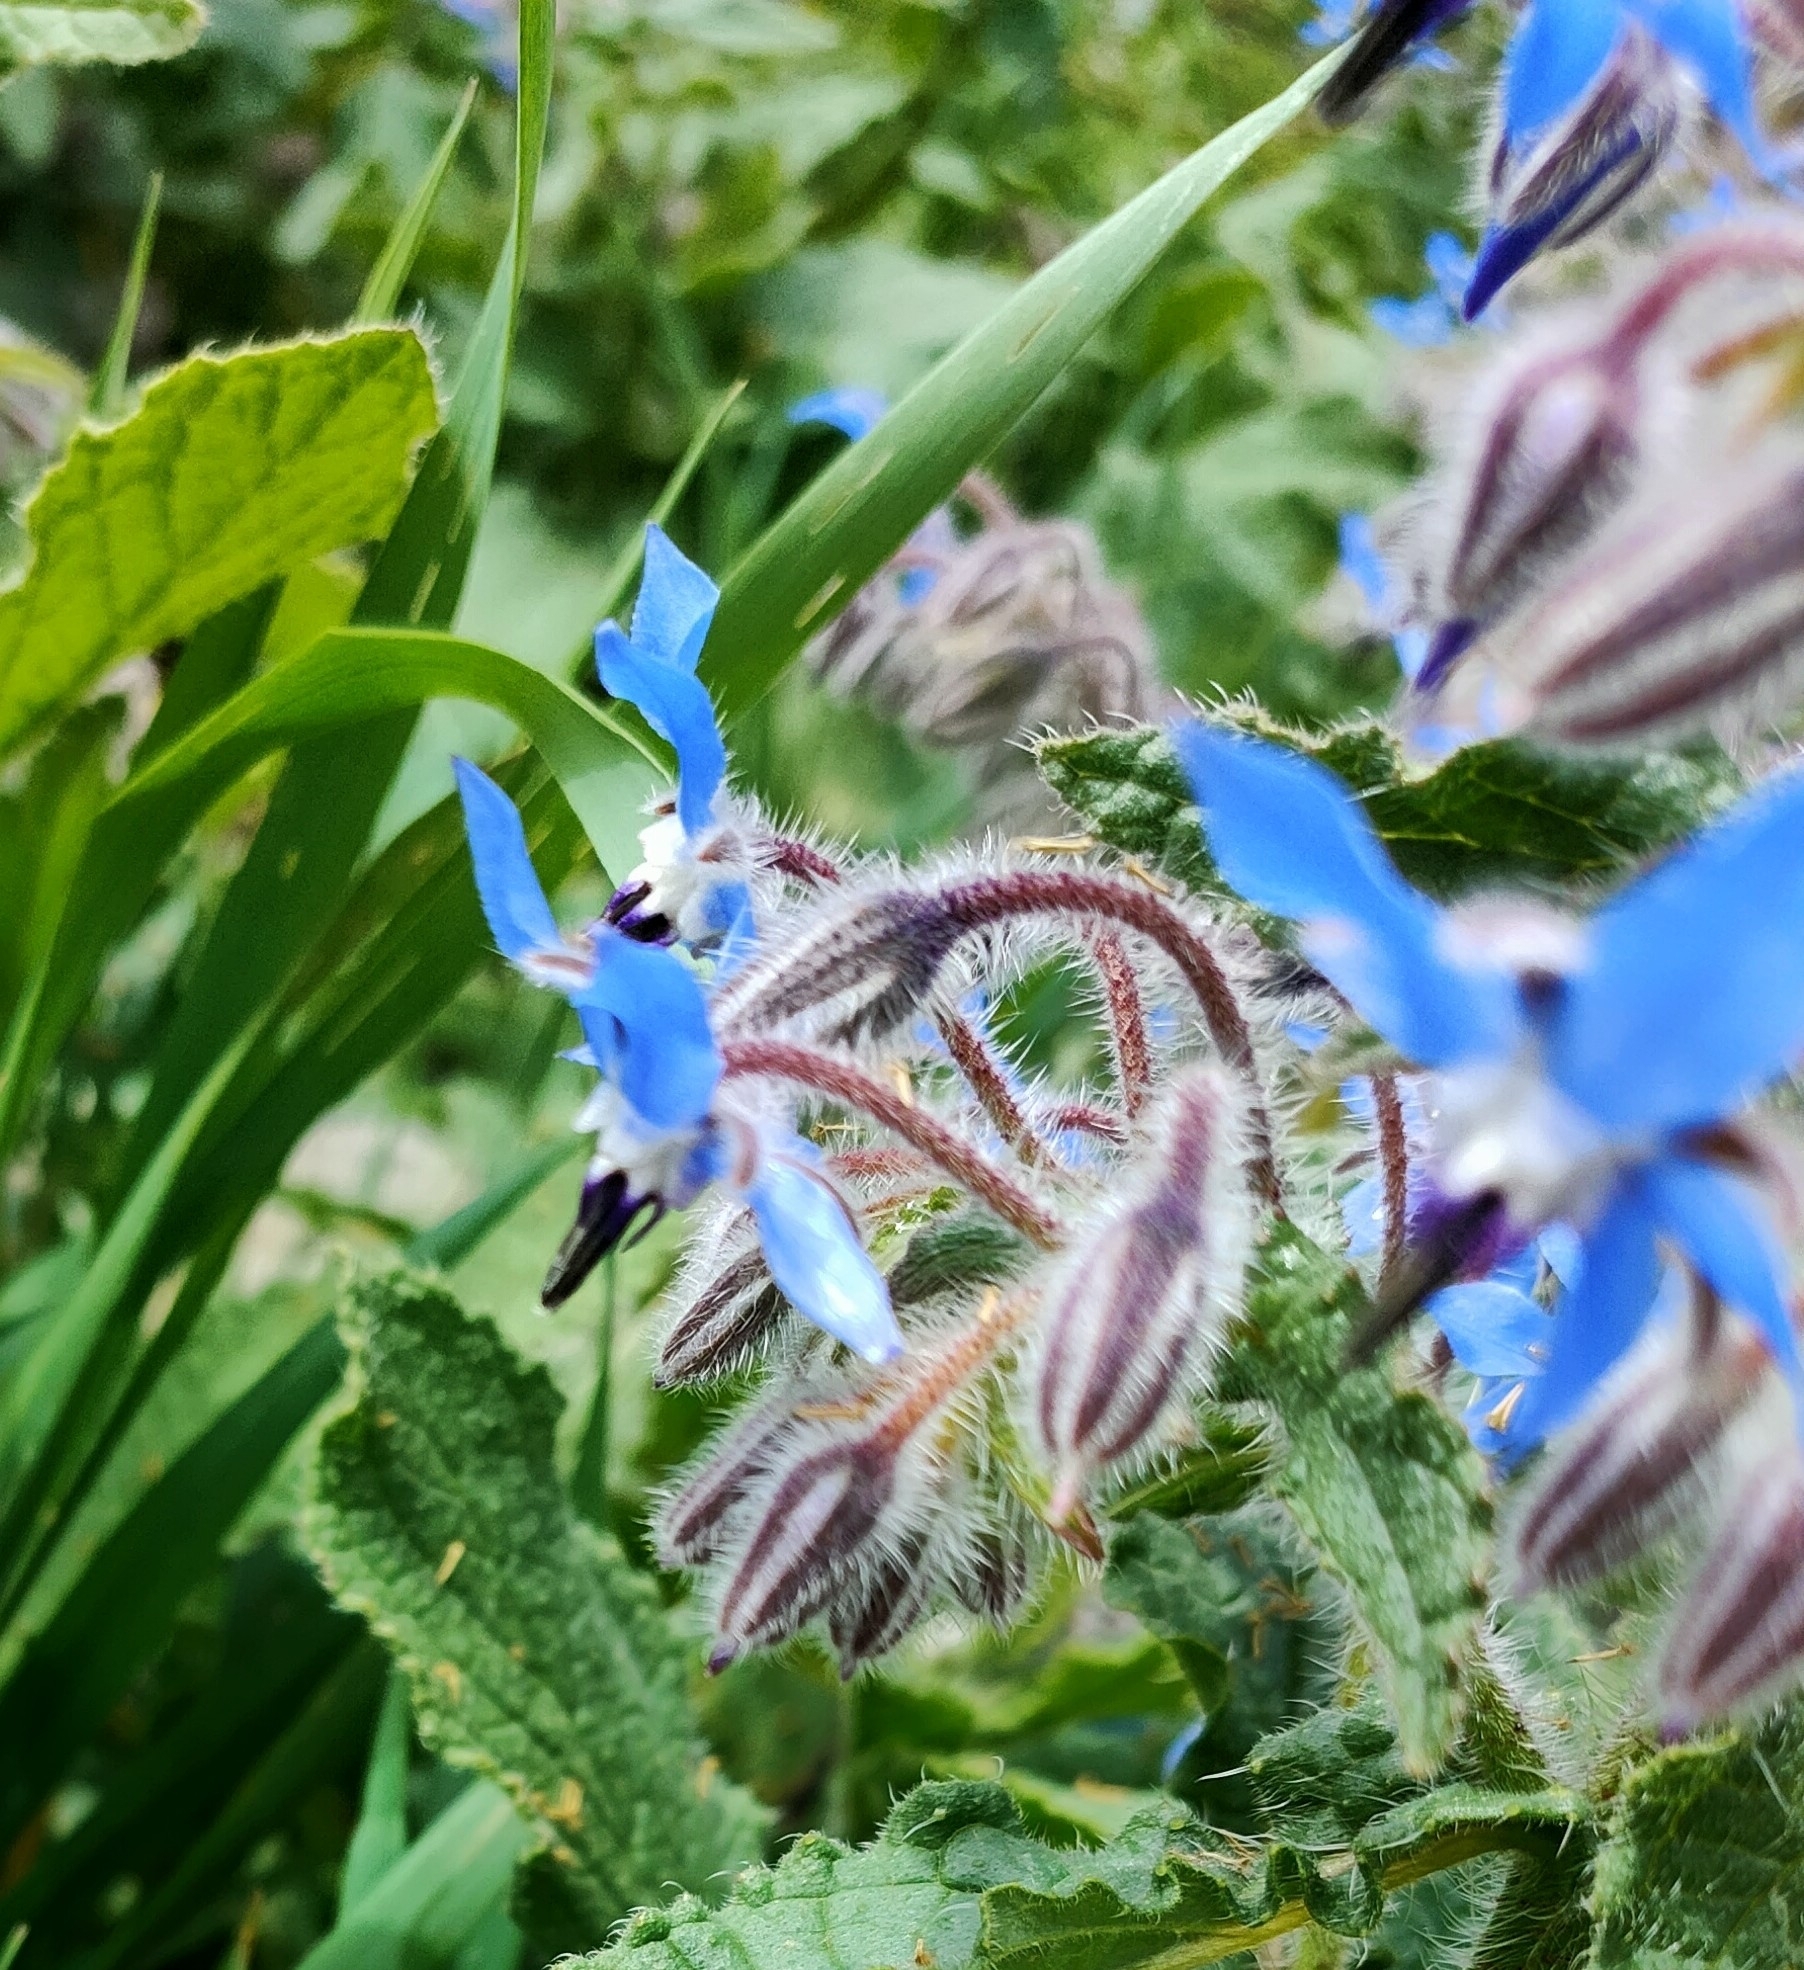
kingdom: Plantae
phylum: Tracheophyta
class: Magnoliopsida
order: Boraginales
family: Boraginaceae
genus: Borago
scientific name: Borago officinalis
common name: Borage
